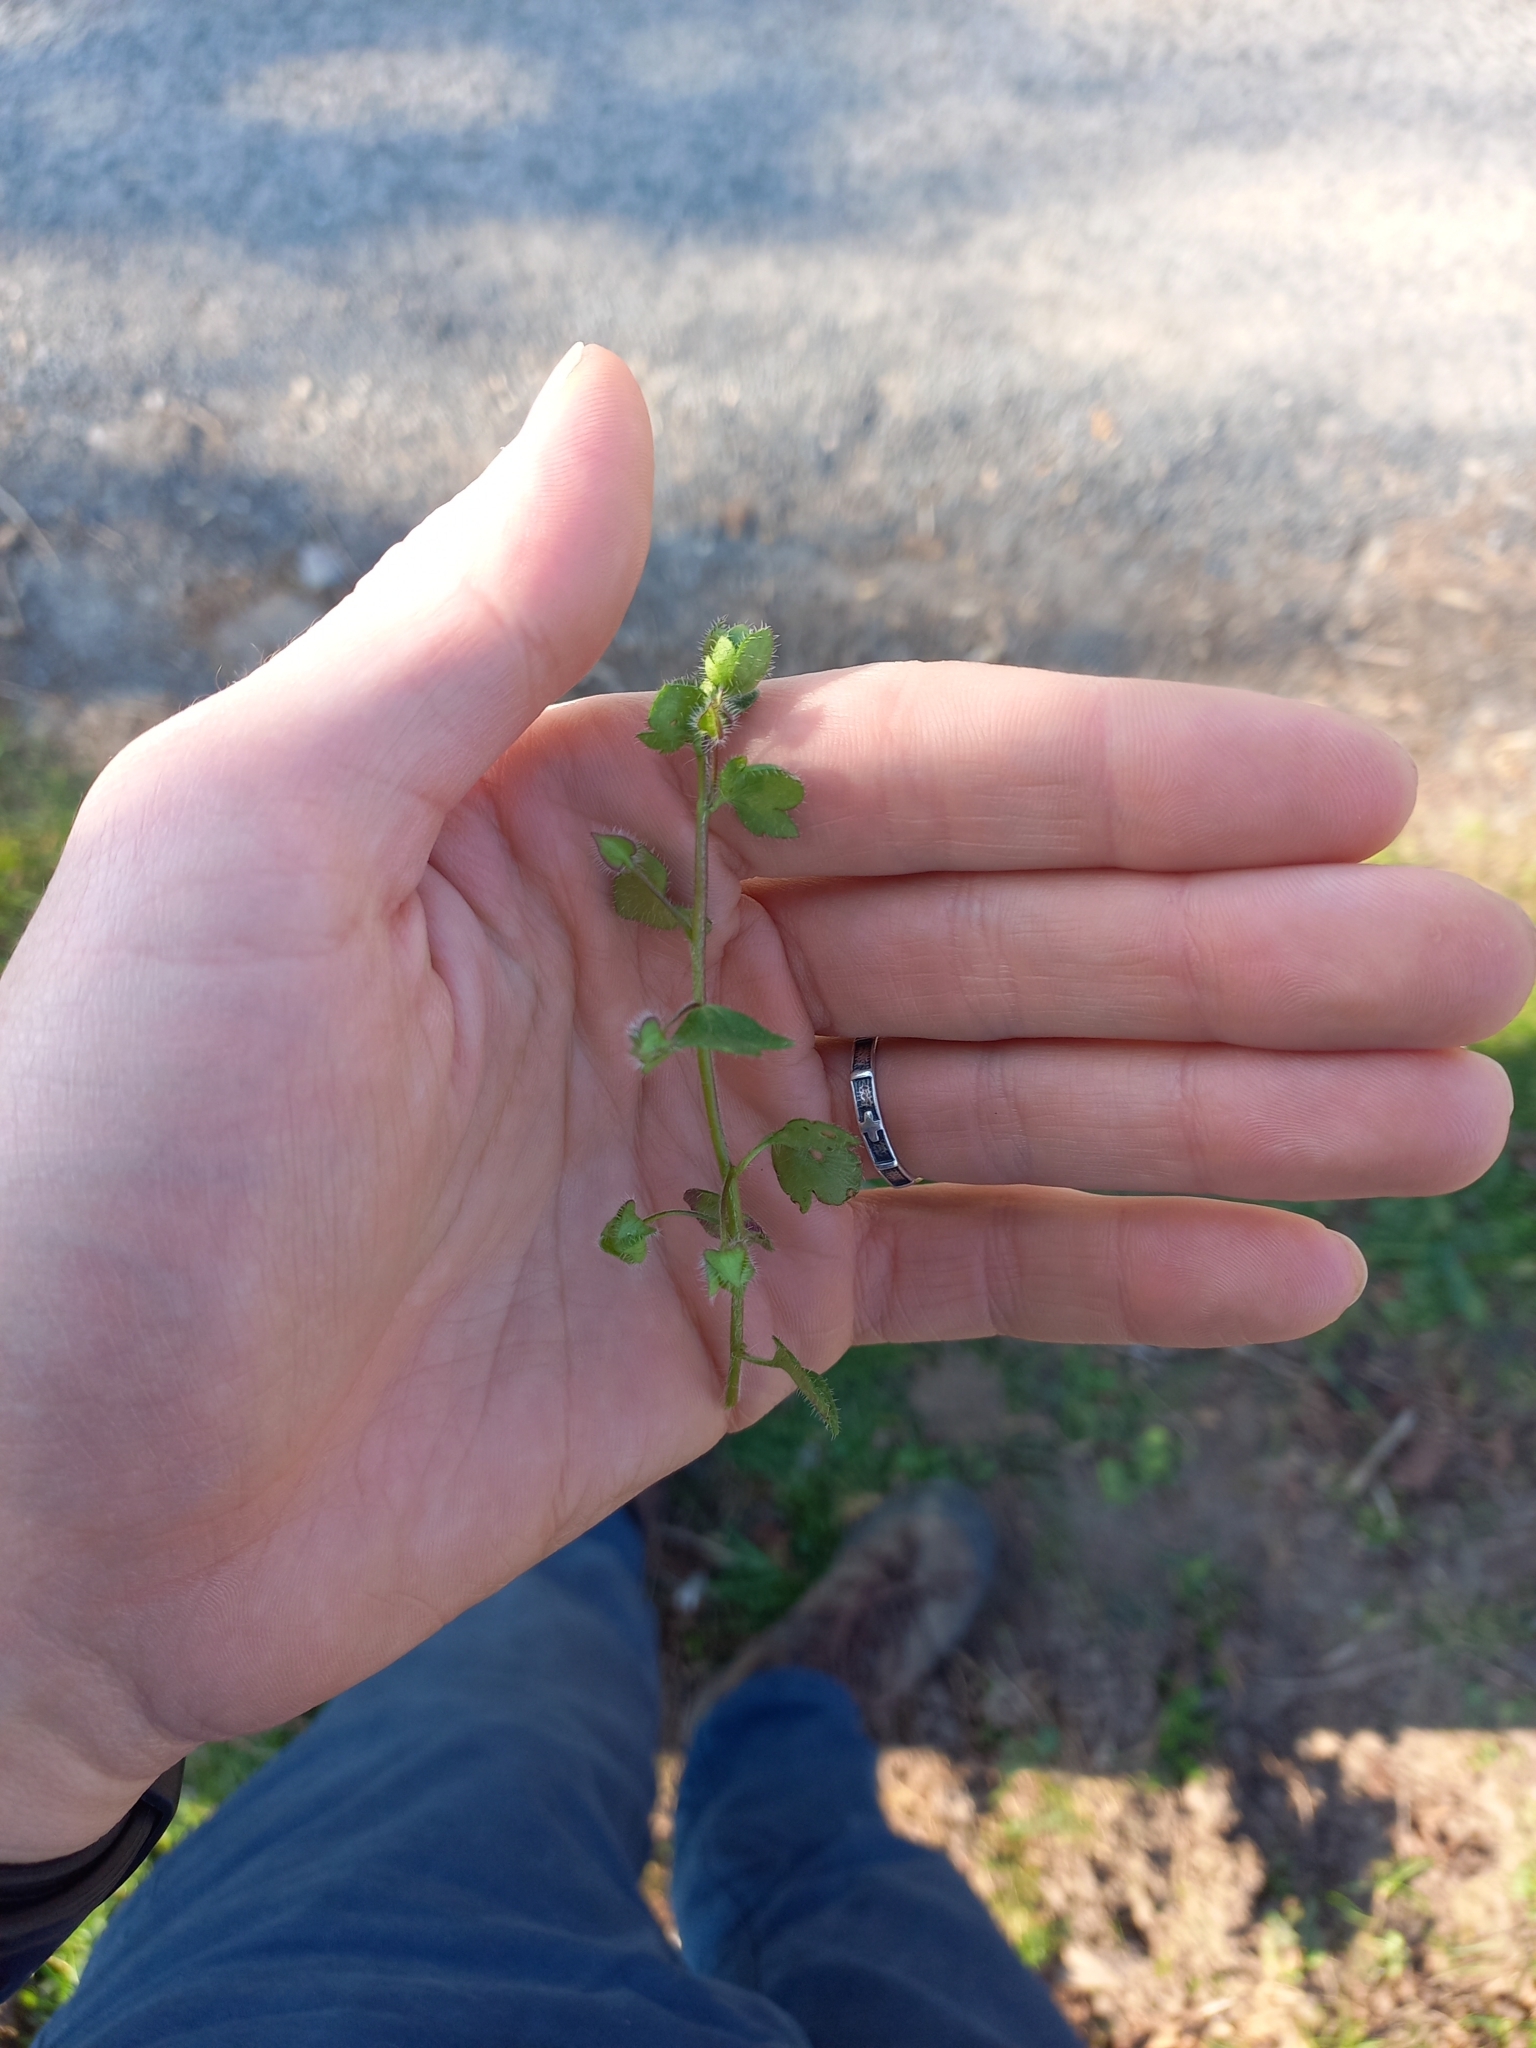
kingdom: Plantae
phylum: Tracheophyta
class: Magnoliopsida
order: Lamiales
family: Plantaginaceae
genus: Veronica
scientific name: Veronica hederifolia
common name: Ivy-leaved speedwell
